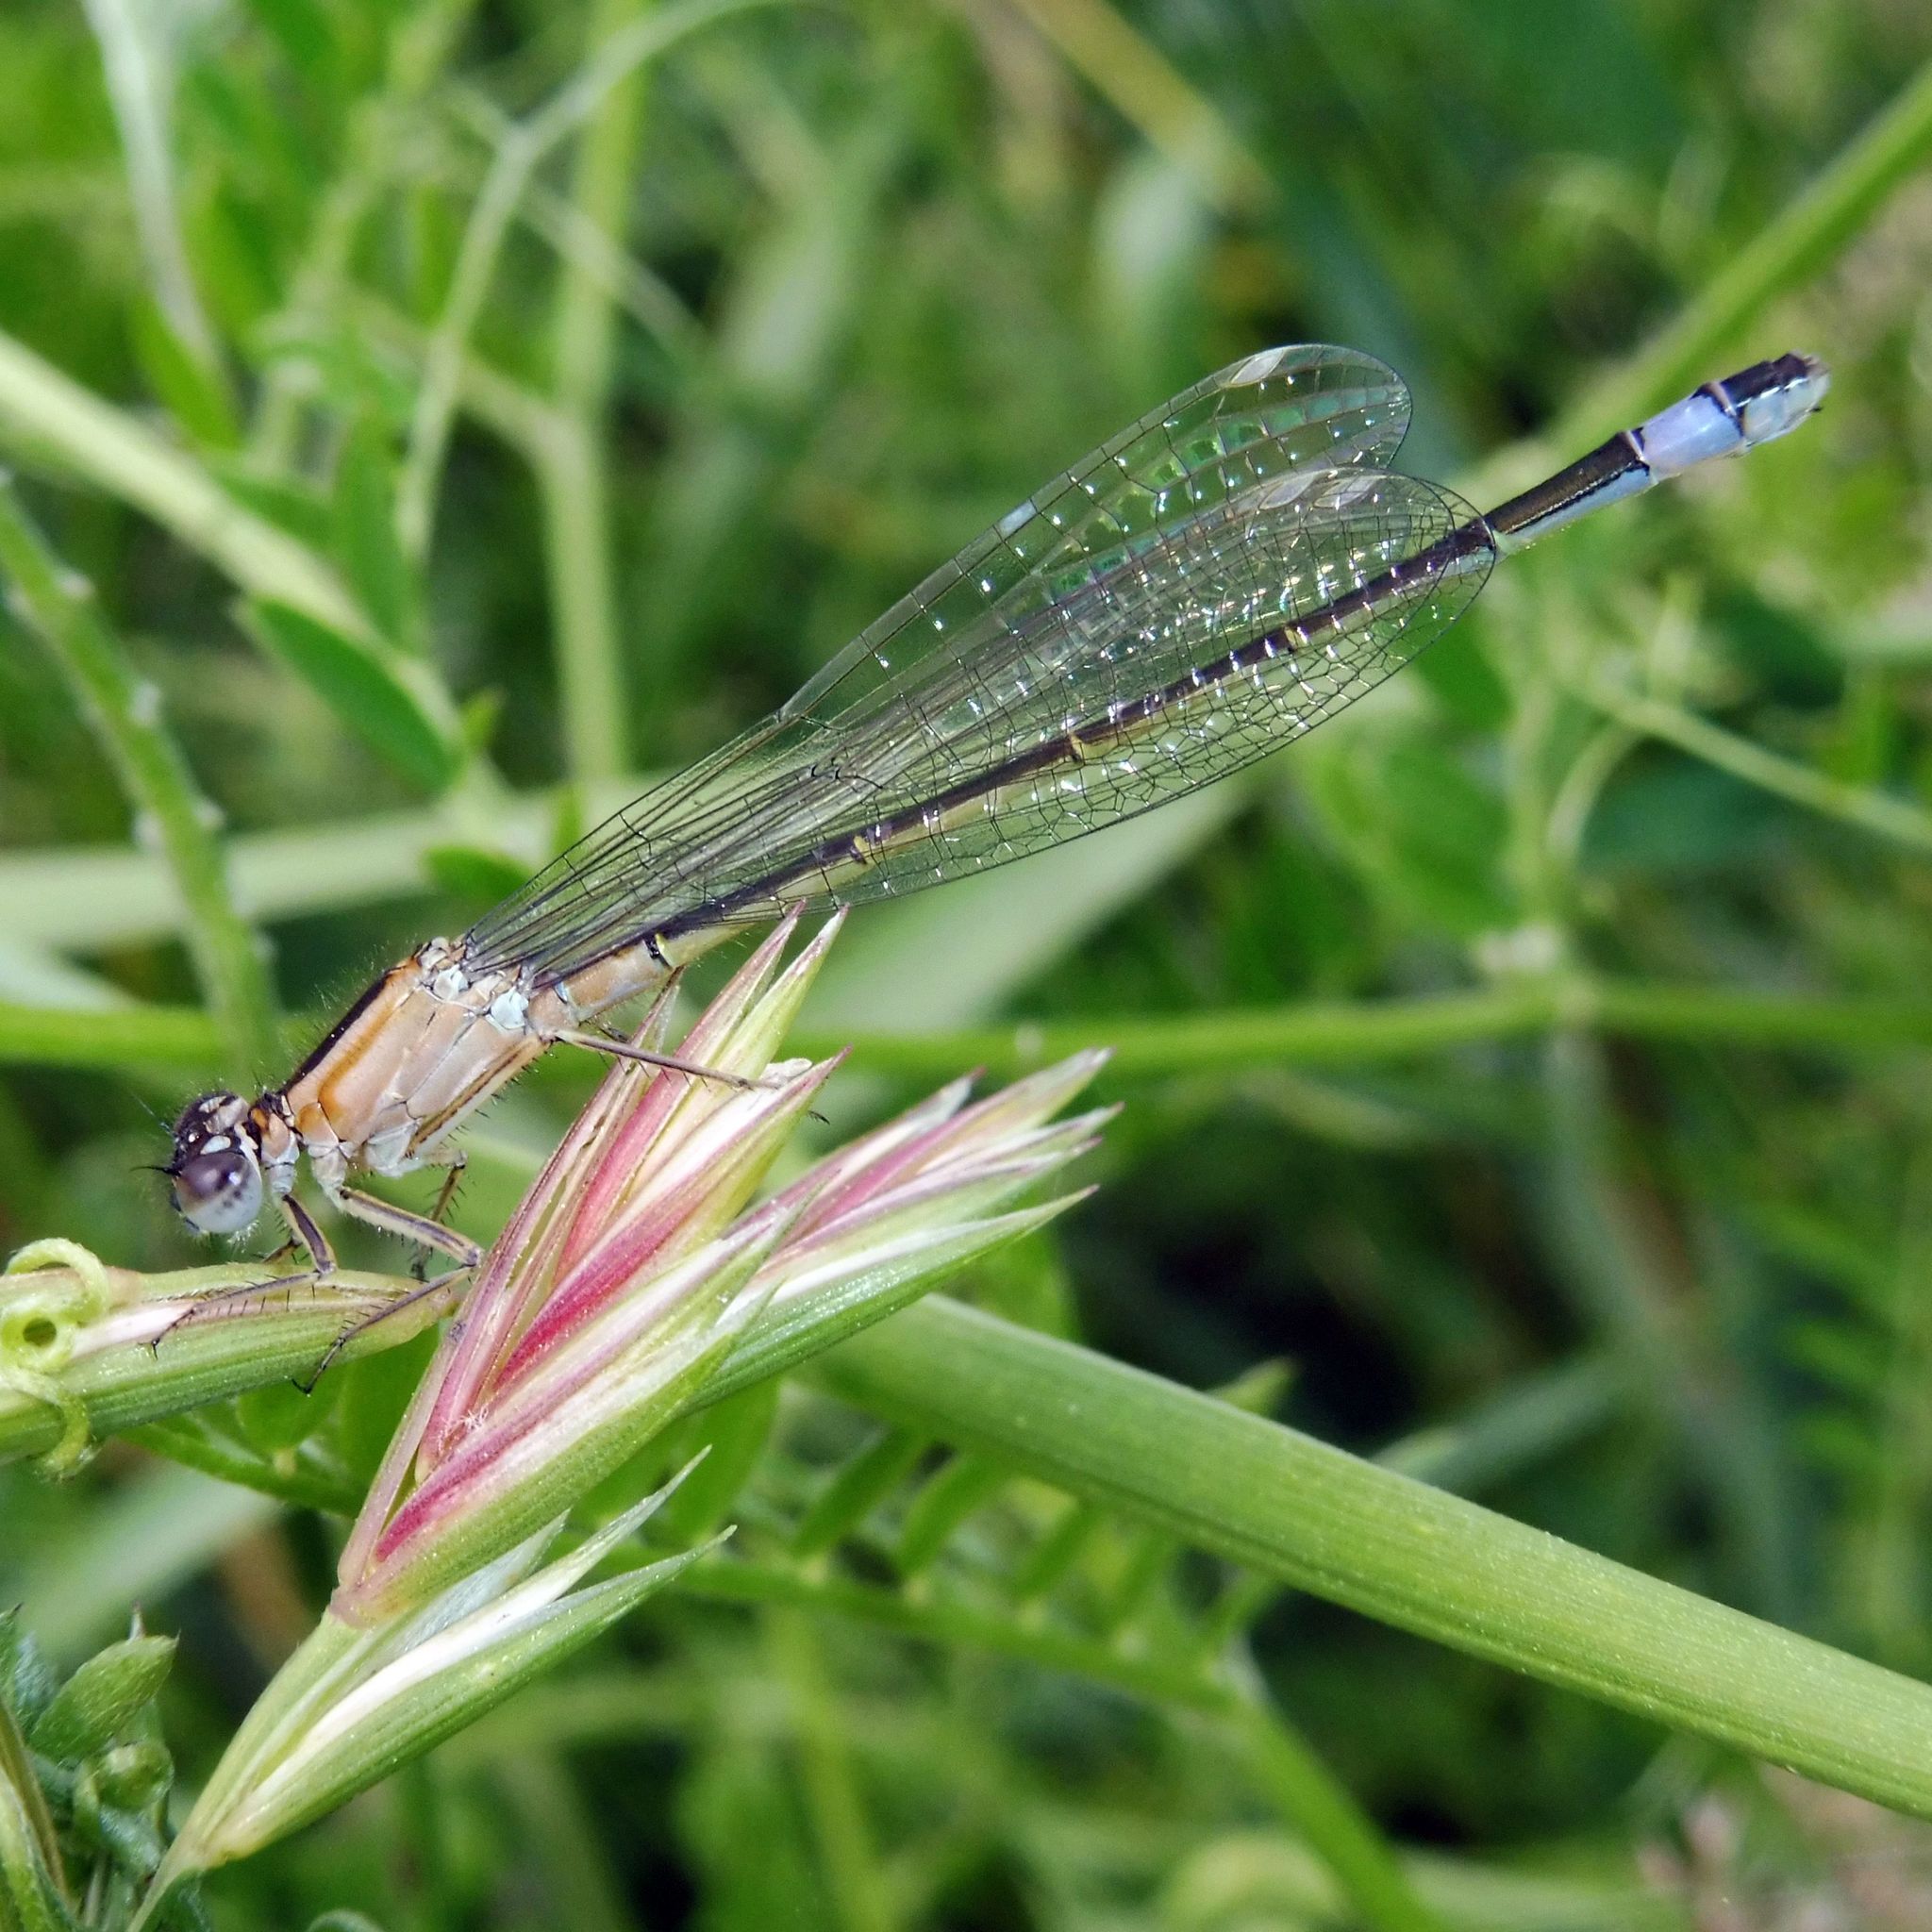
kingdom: Animalia
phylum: Arthropoda
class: Insecta
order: Odonata
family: Coenagrionidae
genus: Ischnura
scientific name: Ischnura elegans
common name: Blue-tailed damselfly
